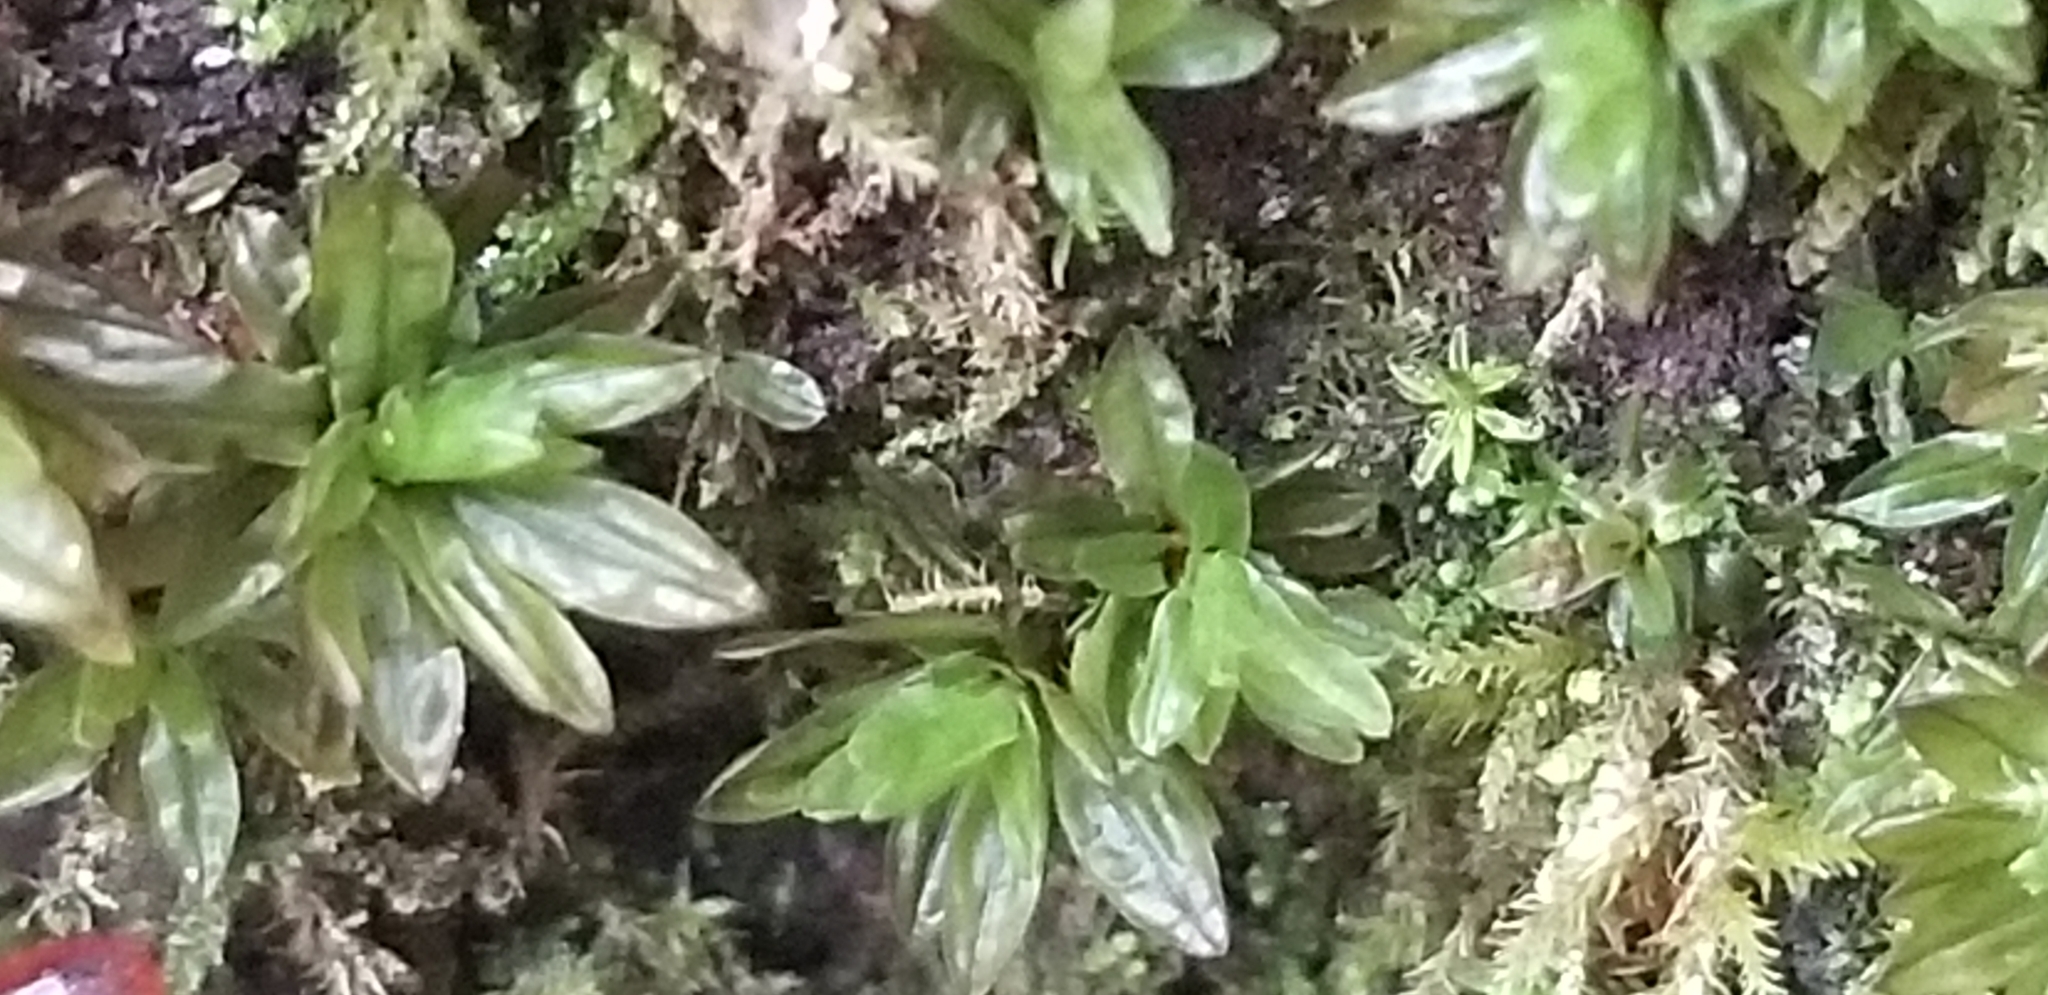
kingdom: Plantae
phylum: Bryophyta
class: Bryopsida
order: Encalyptales
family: Encalyptaceae
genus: Encalypta
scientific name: Encalypta procera
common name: Spiral extinguisher moss
